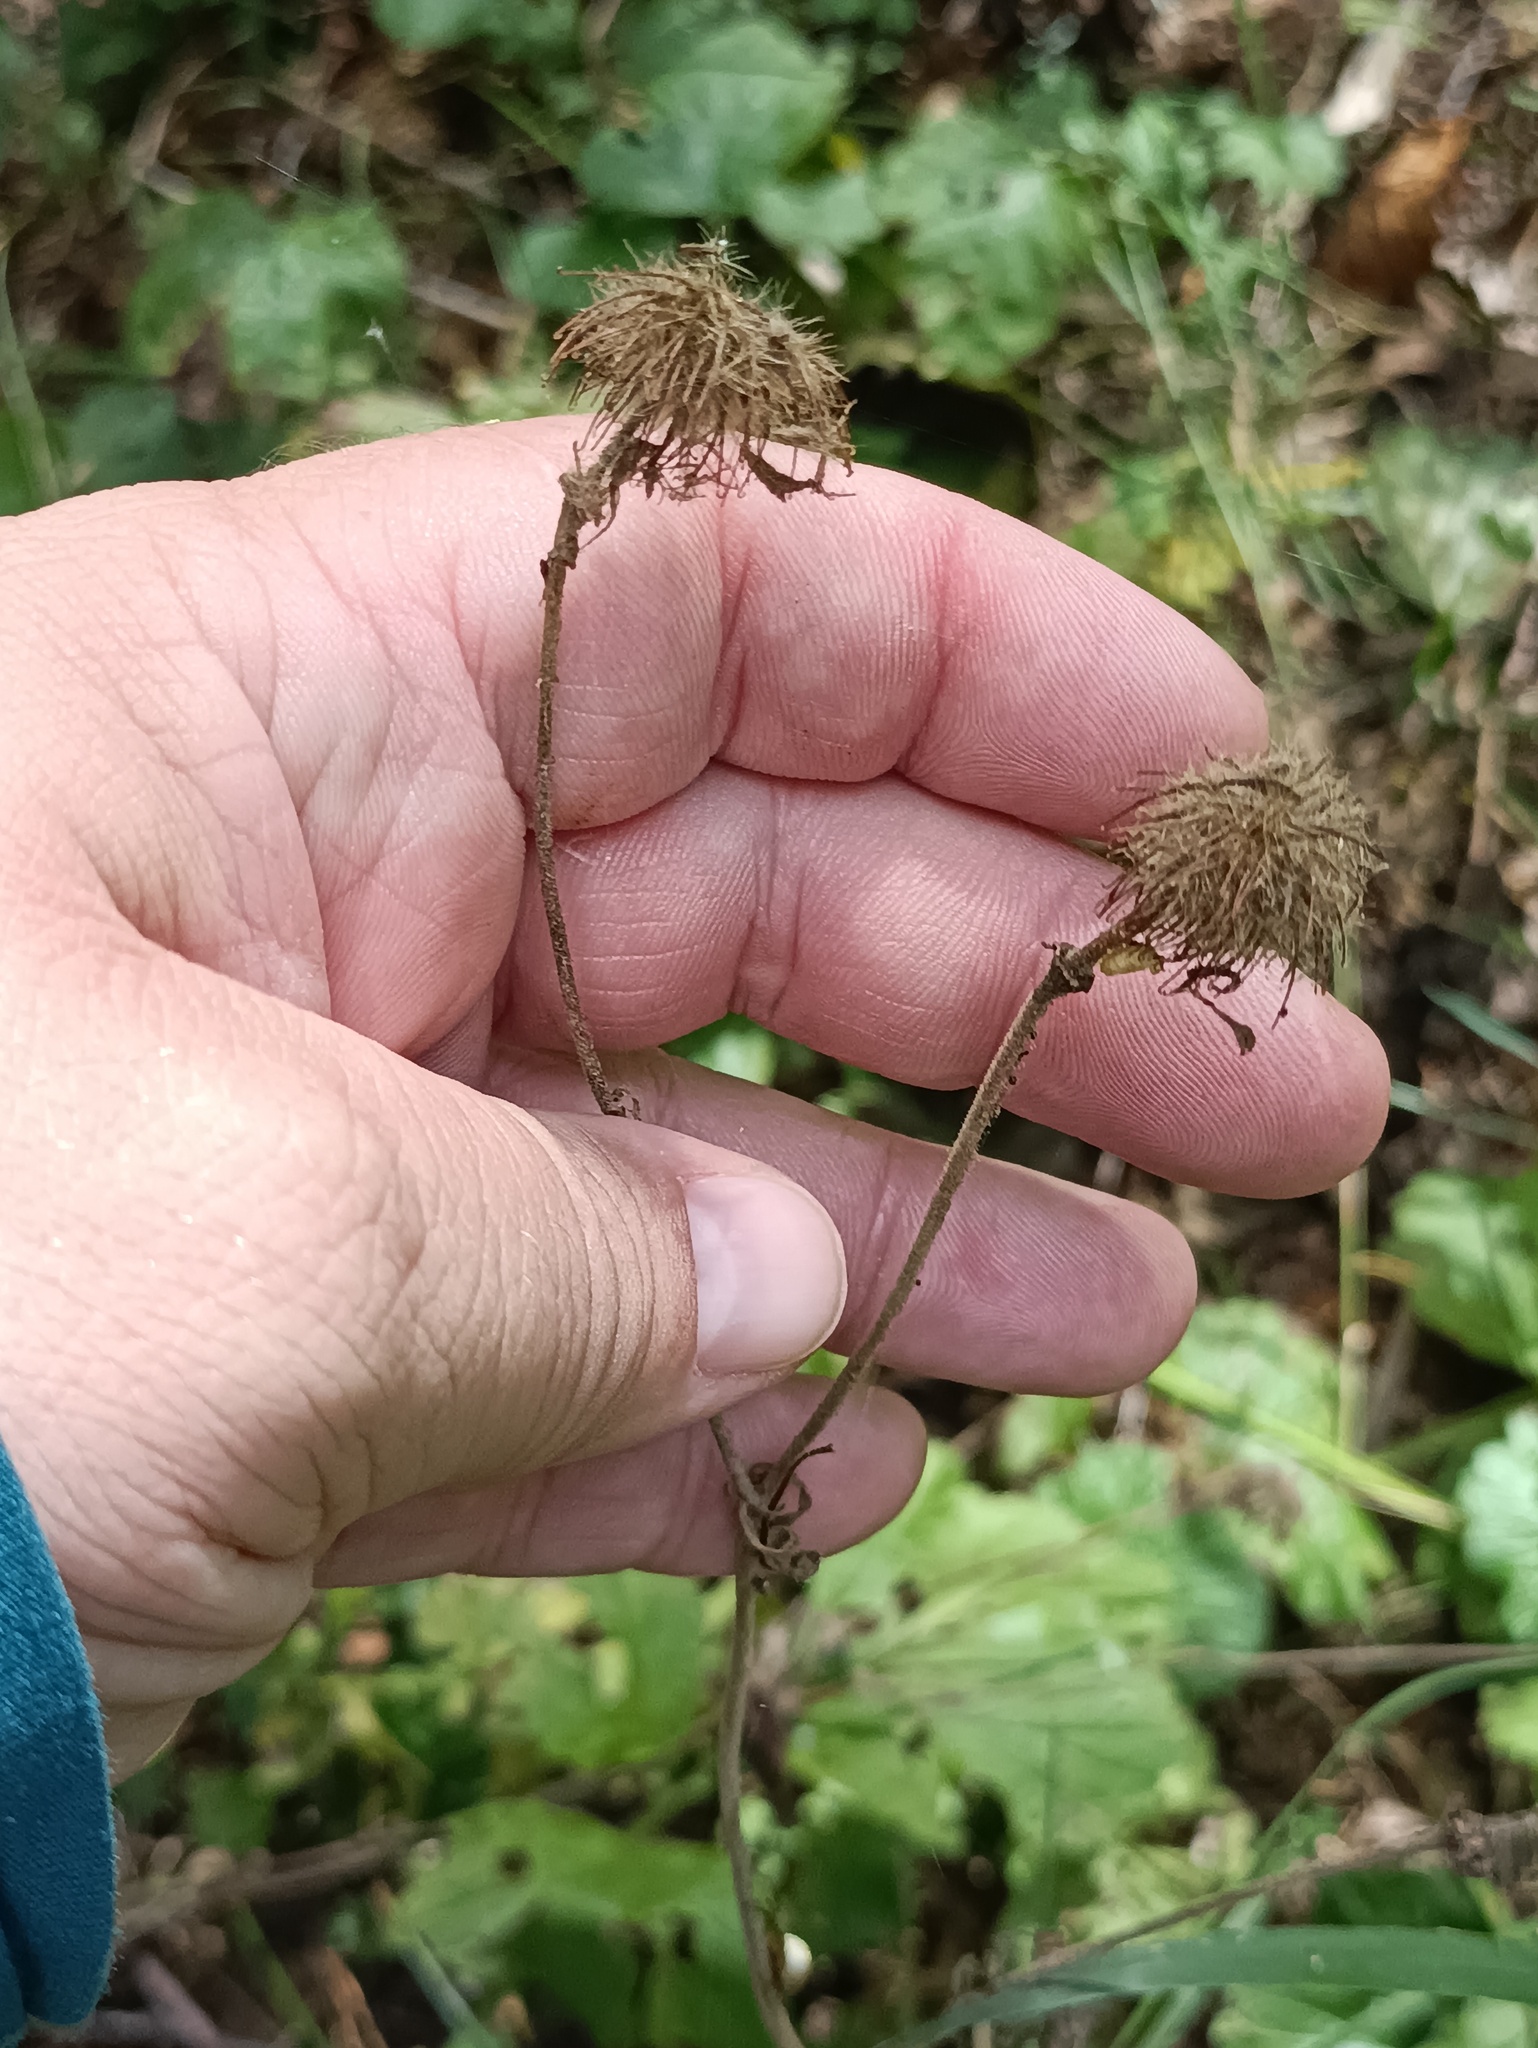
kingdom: Plantae
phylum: Tracheophyta
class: Magnoliopsida
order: Rosales
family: Rosaceae
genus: Geum
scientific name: Geum rivale
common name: Water avens
